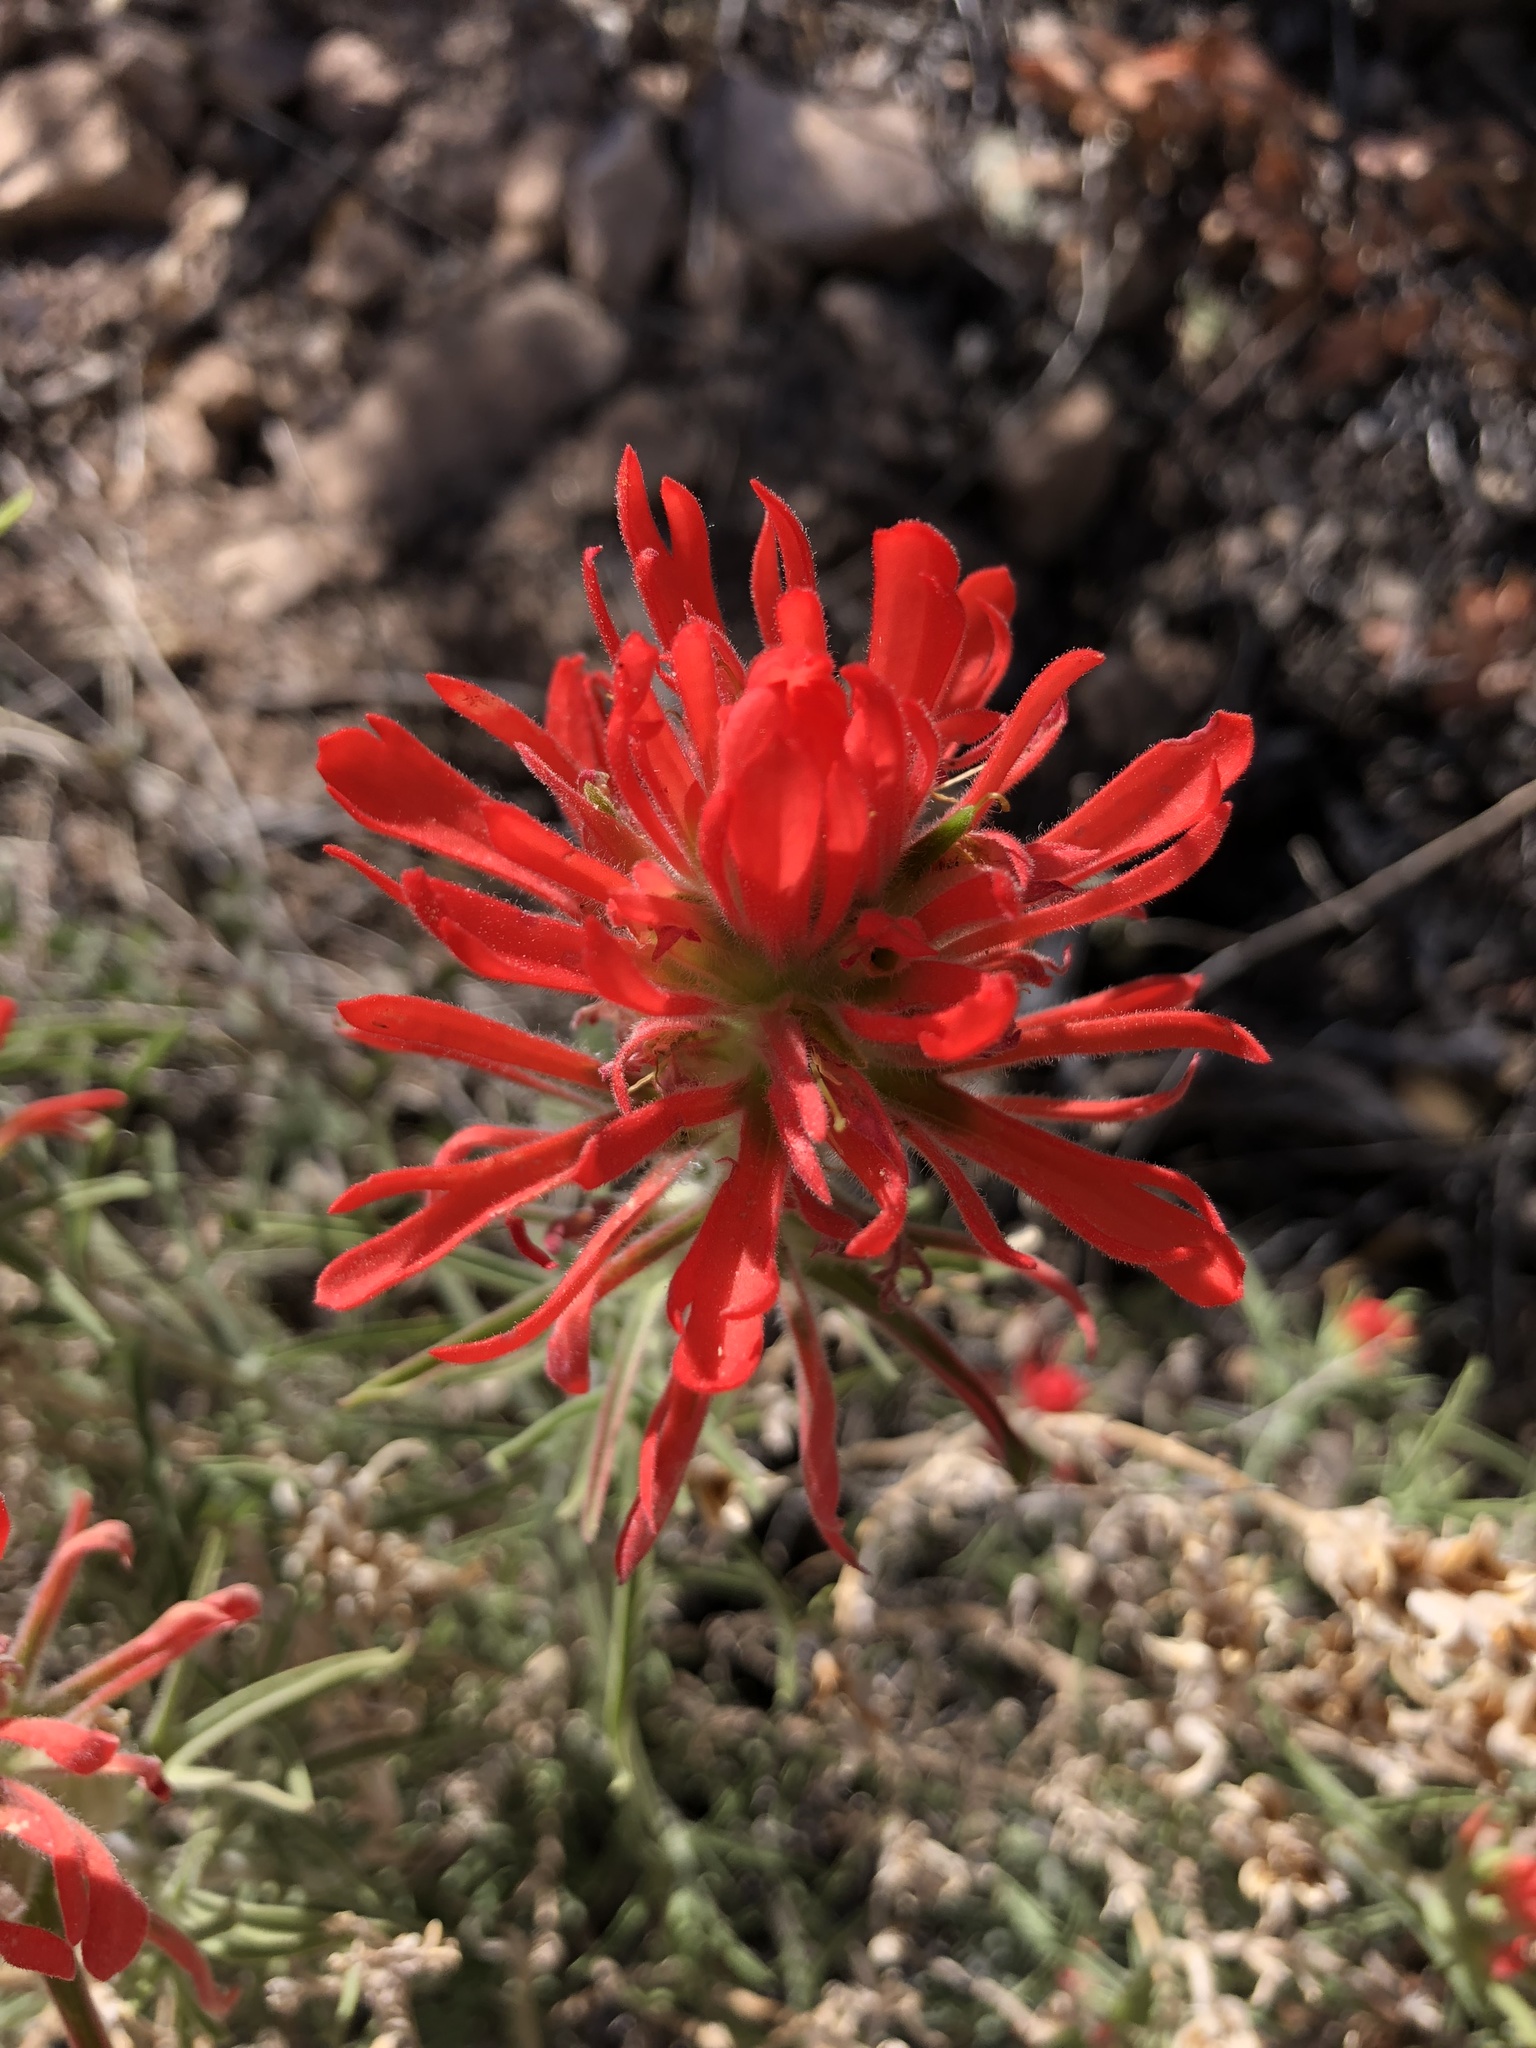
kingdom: Plantae
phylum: Tracheophyta
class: Magnoliopsida
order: Lamiales
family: Orobanchaceae
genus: Castilleja
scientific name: Castilleja chromosa
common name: Desert paintbrush
